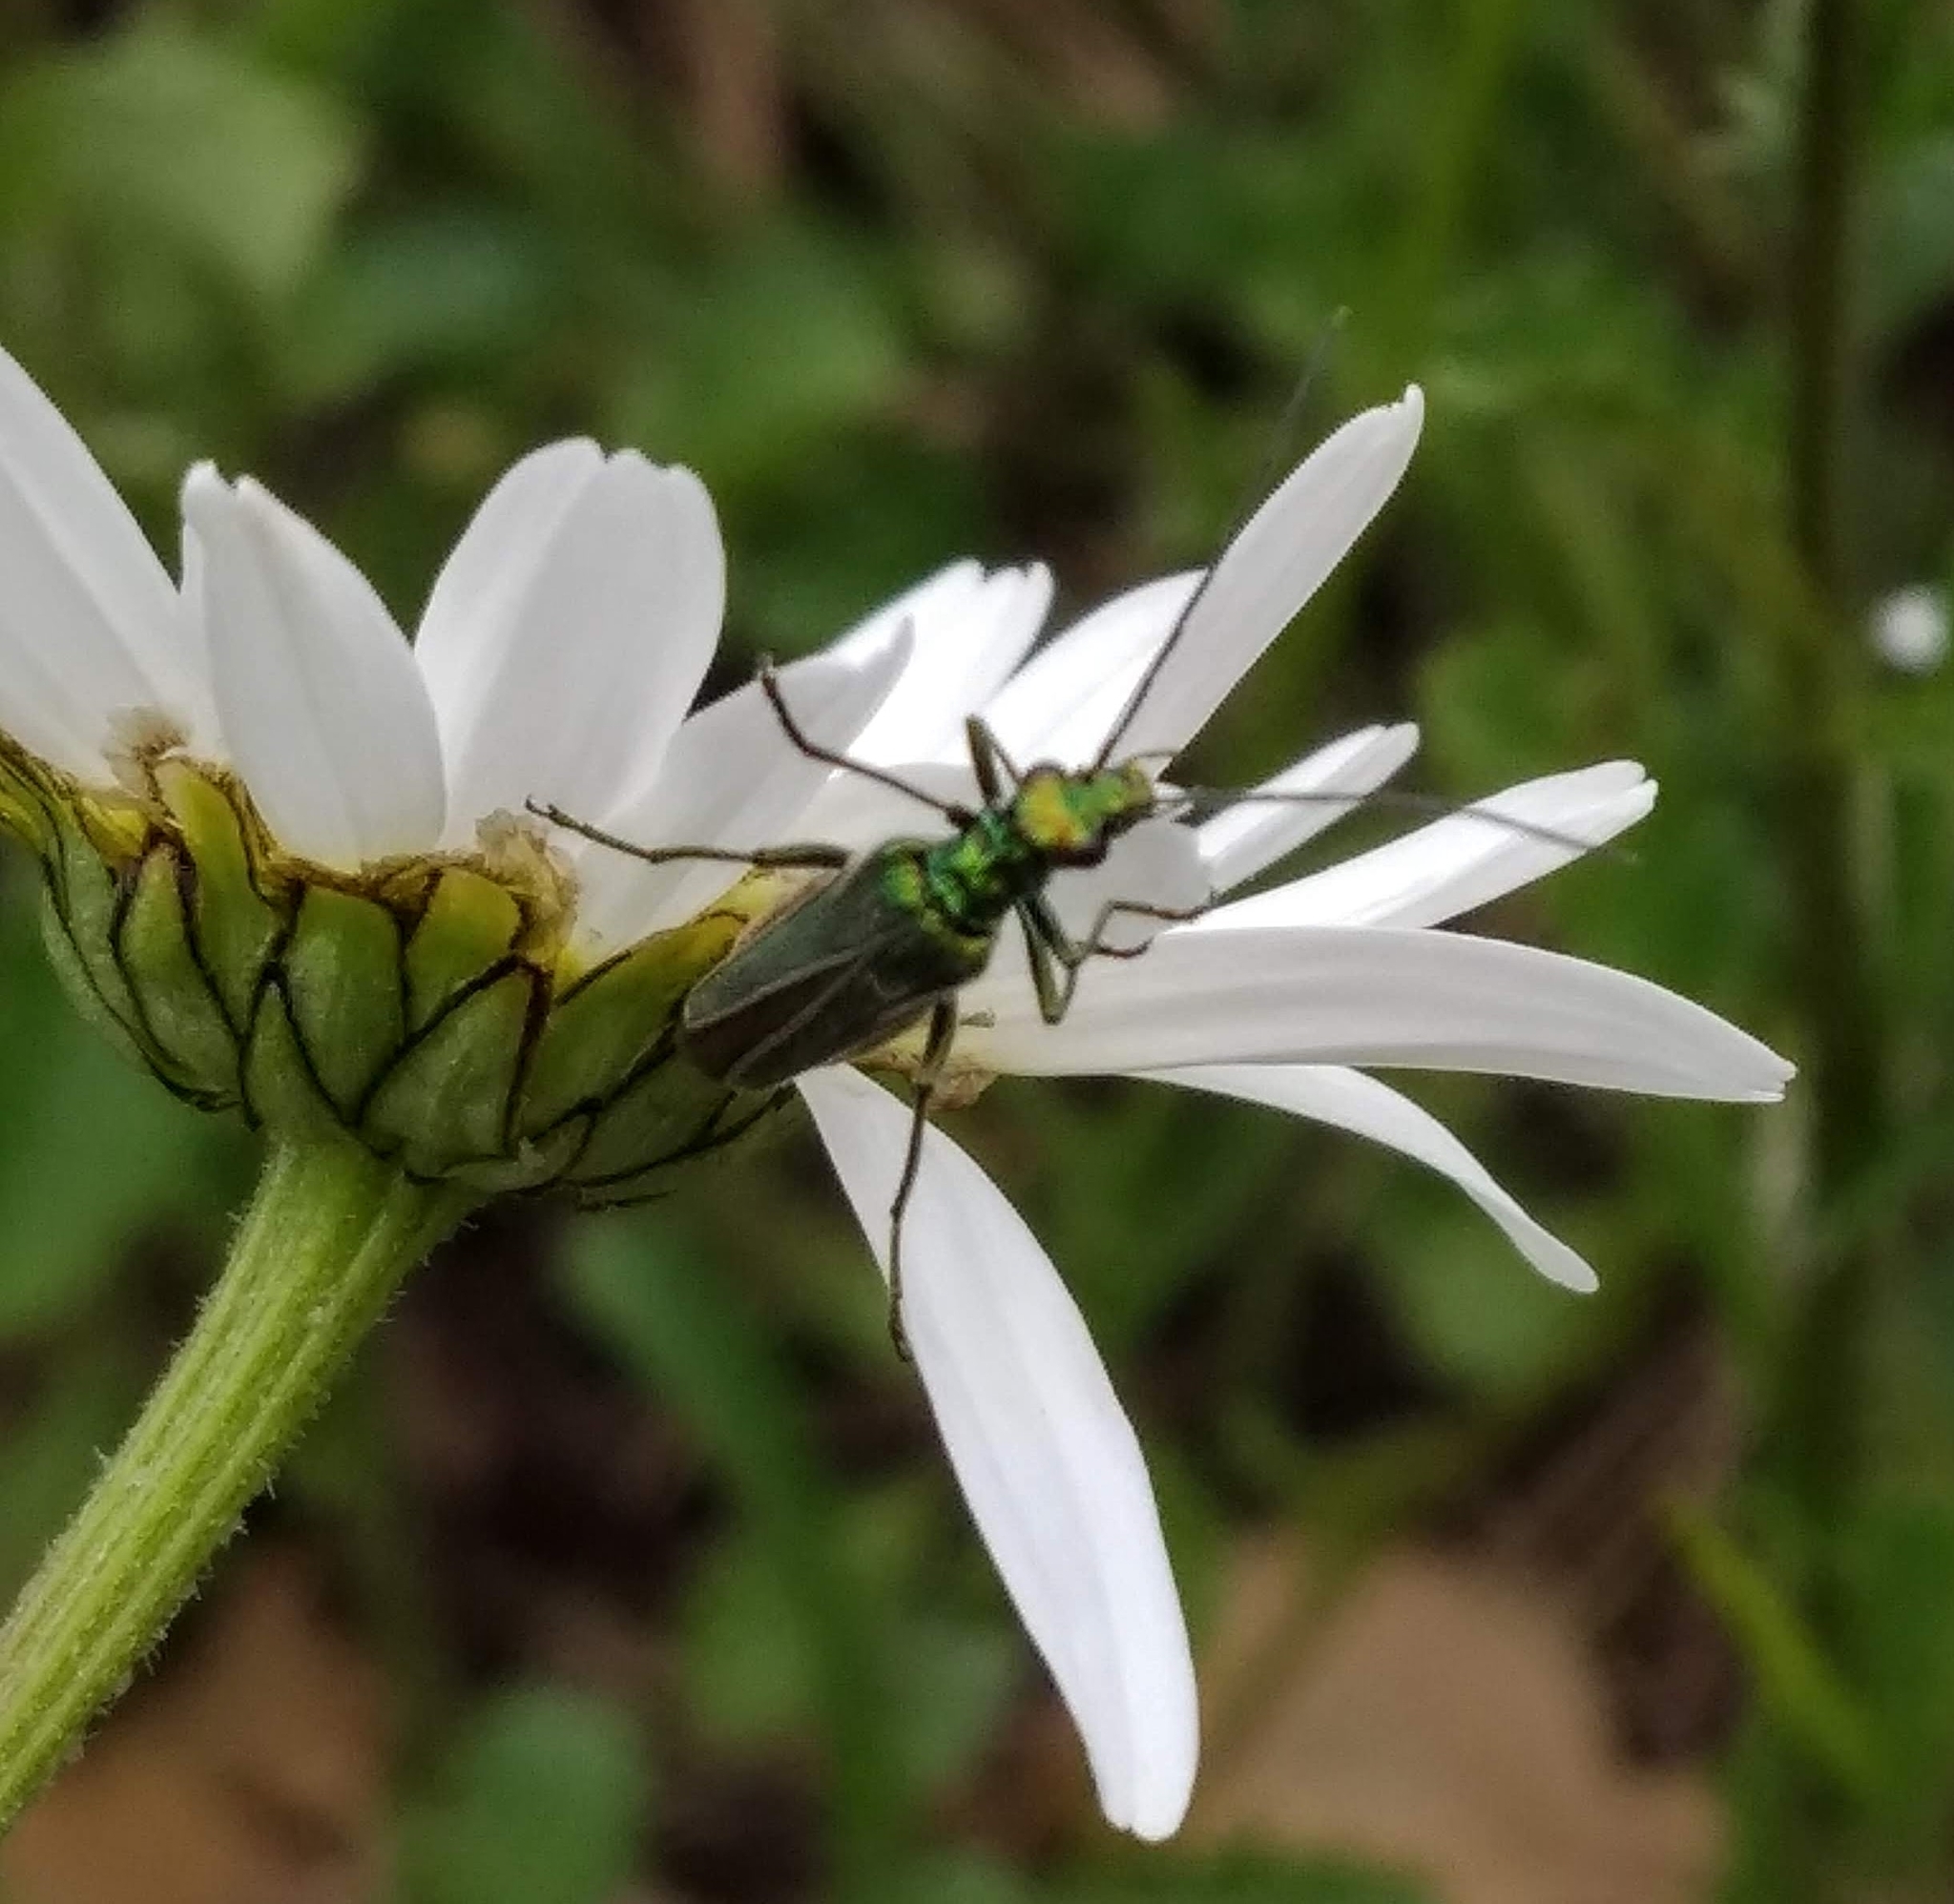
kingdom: Animalia
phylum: Arthropoda
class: Insecta
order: Coleoptera
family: Oedemeridae
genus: Oedemera
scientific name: Oedemera nobilis
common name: Swollen-thighed beetle
